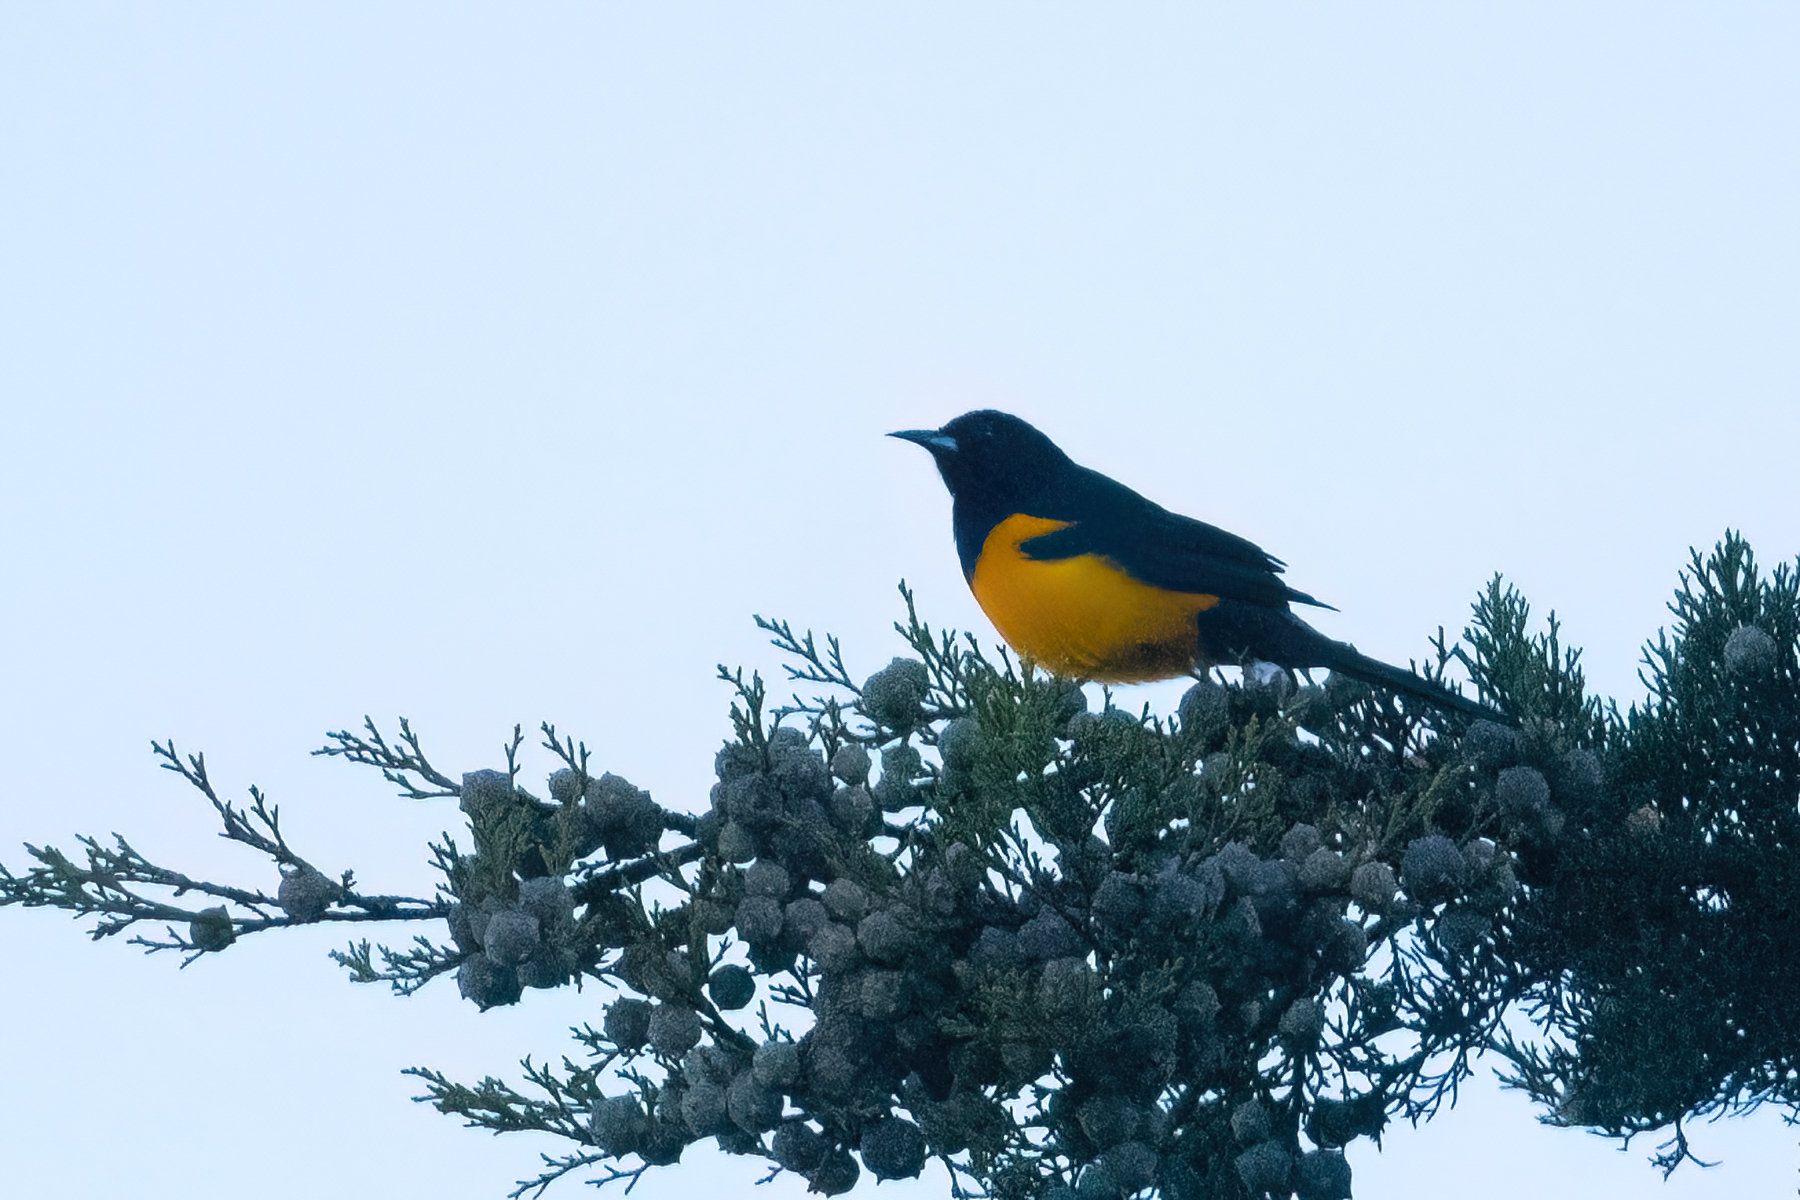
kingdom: Animalia
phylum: Chordata
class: Aves
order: Passeriformes
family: Icteridae
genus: Icterus
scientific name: Icterus wagleri
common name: Black-vented oriole
